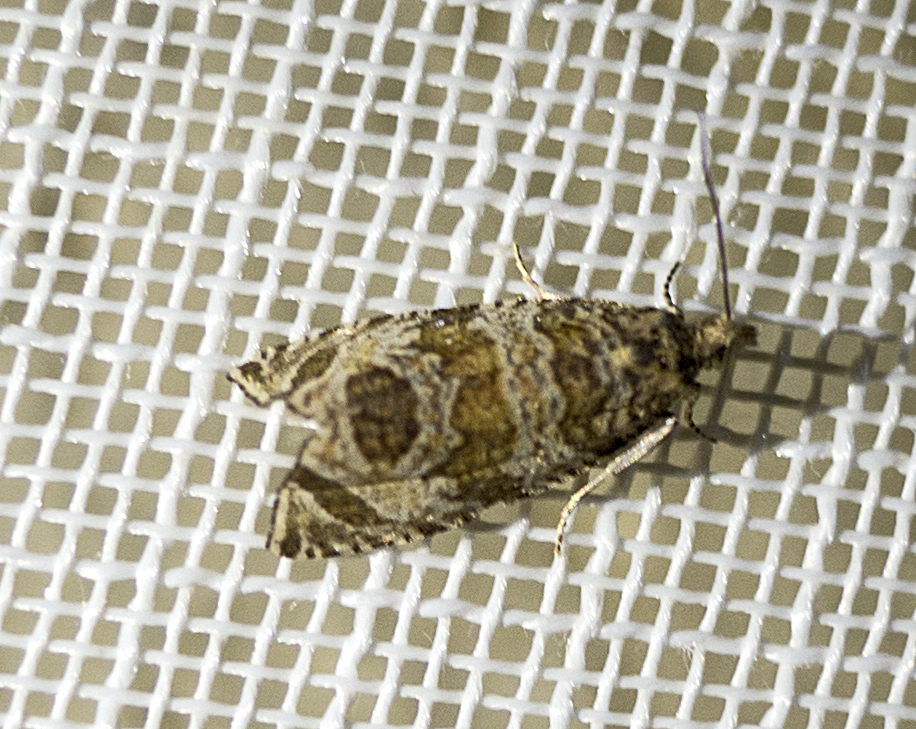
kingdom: Animalia
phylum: Arthropoda
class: Insecta
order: Lepidoptera
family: Tortricidae
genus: Syricoris
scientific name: Syricoris rivulana
